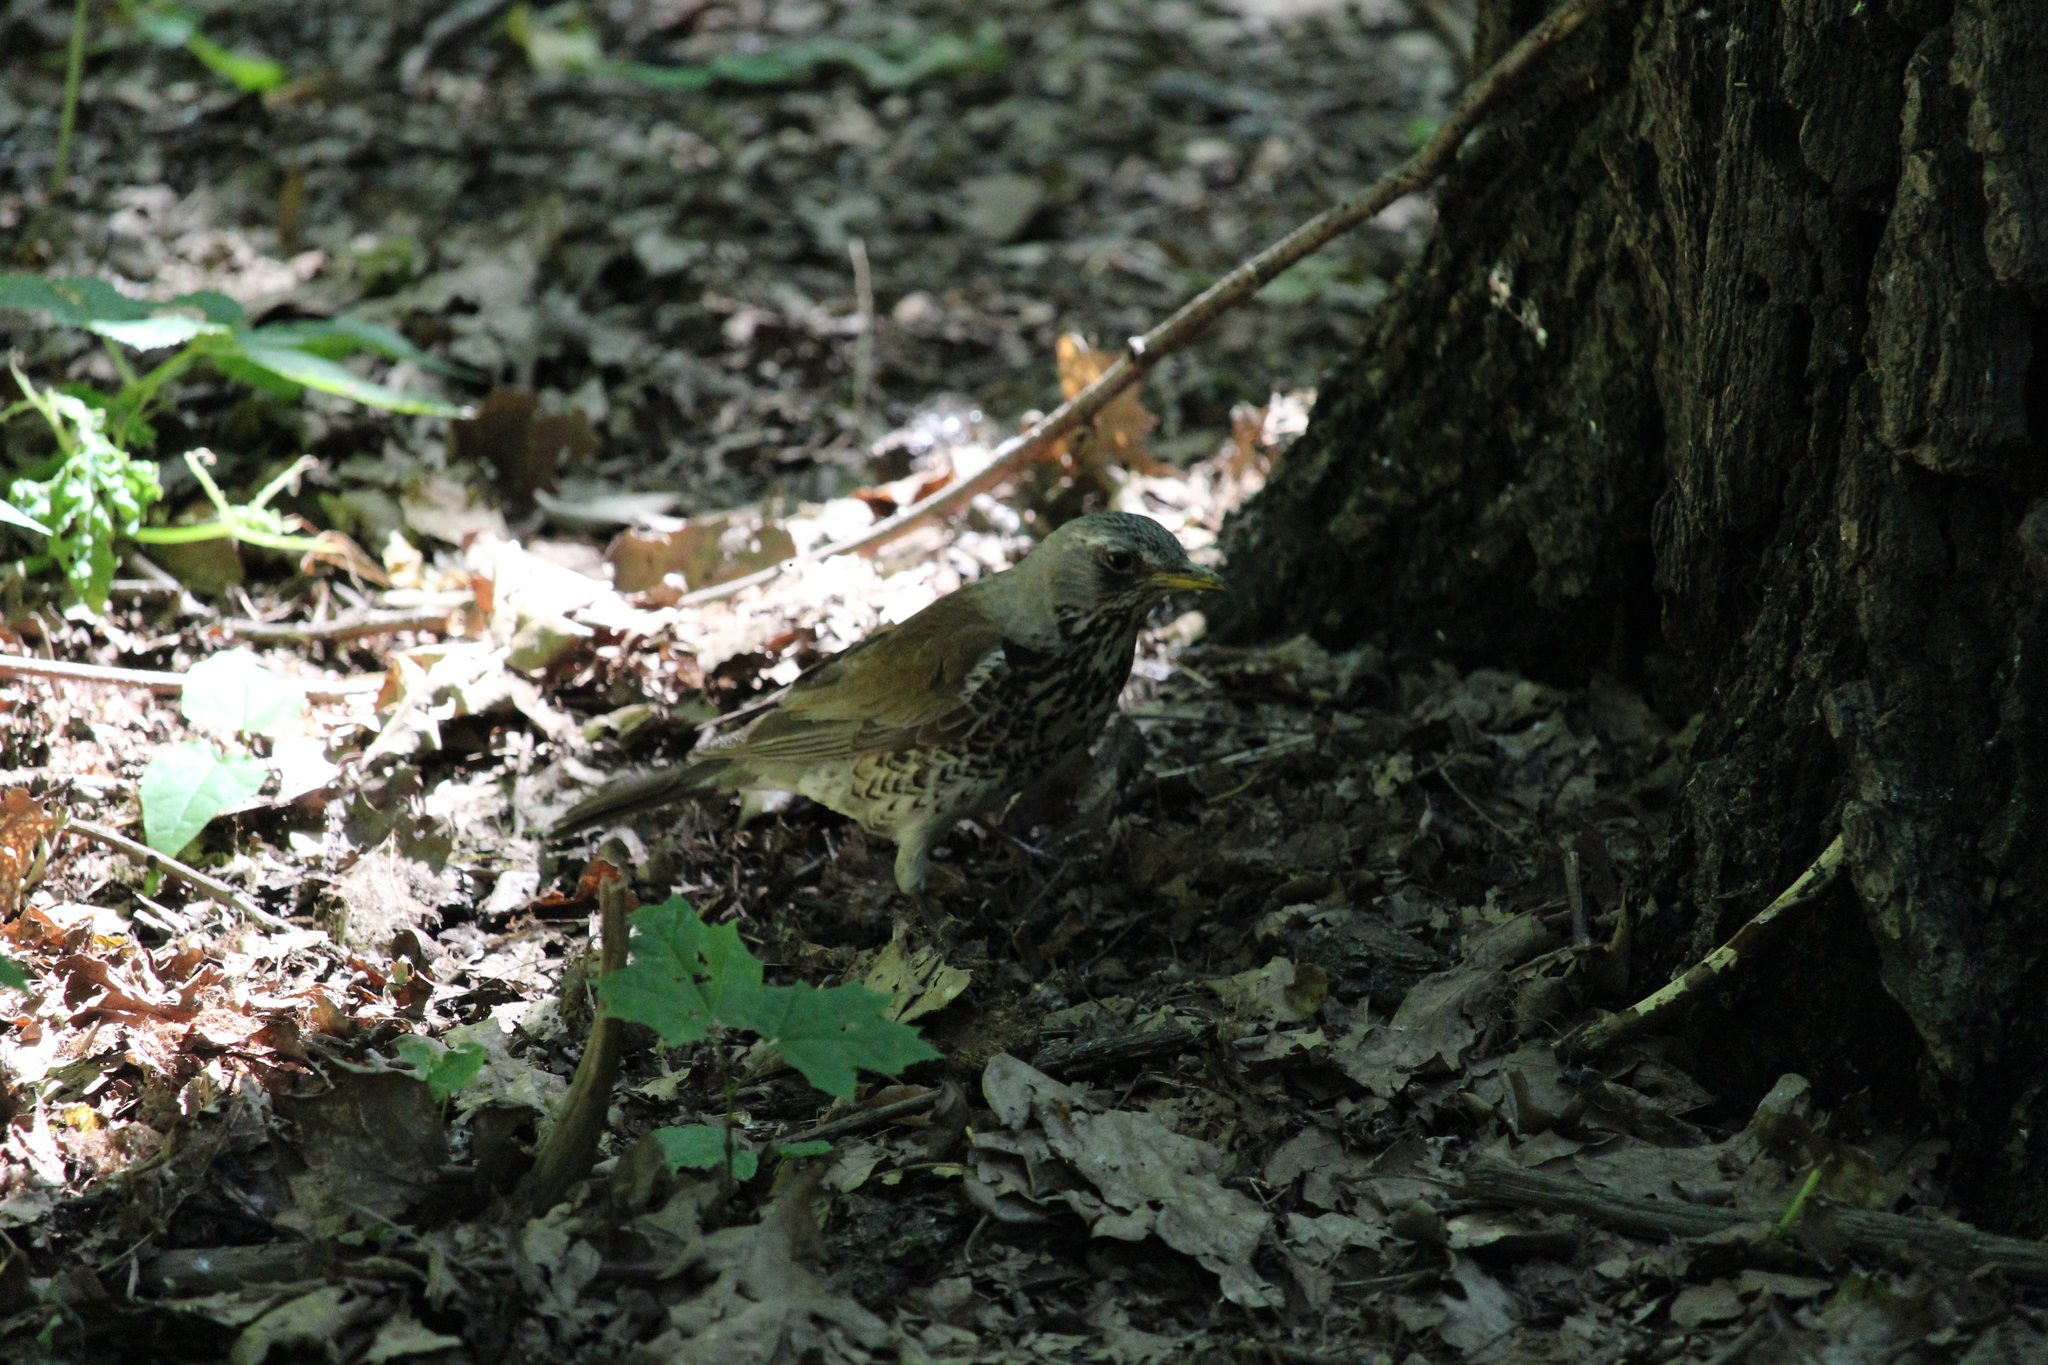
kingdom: Animalia
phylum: Chordata
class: Aves
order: Passeriformes
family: Turdidae
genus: Turdus
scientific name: Turdus pilaris
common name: Fieldfare
